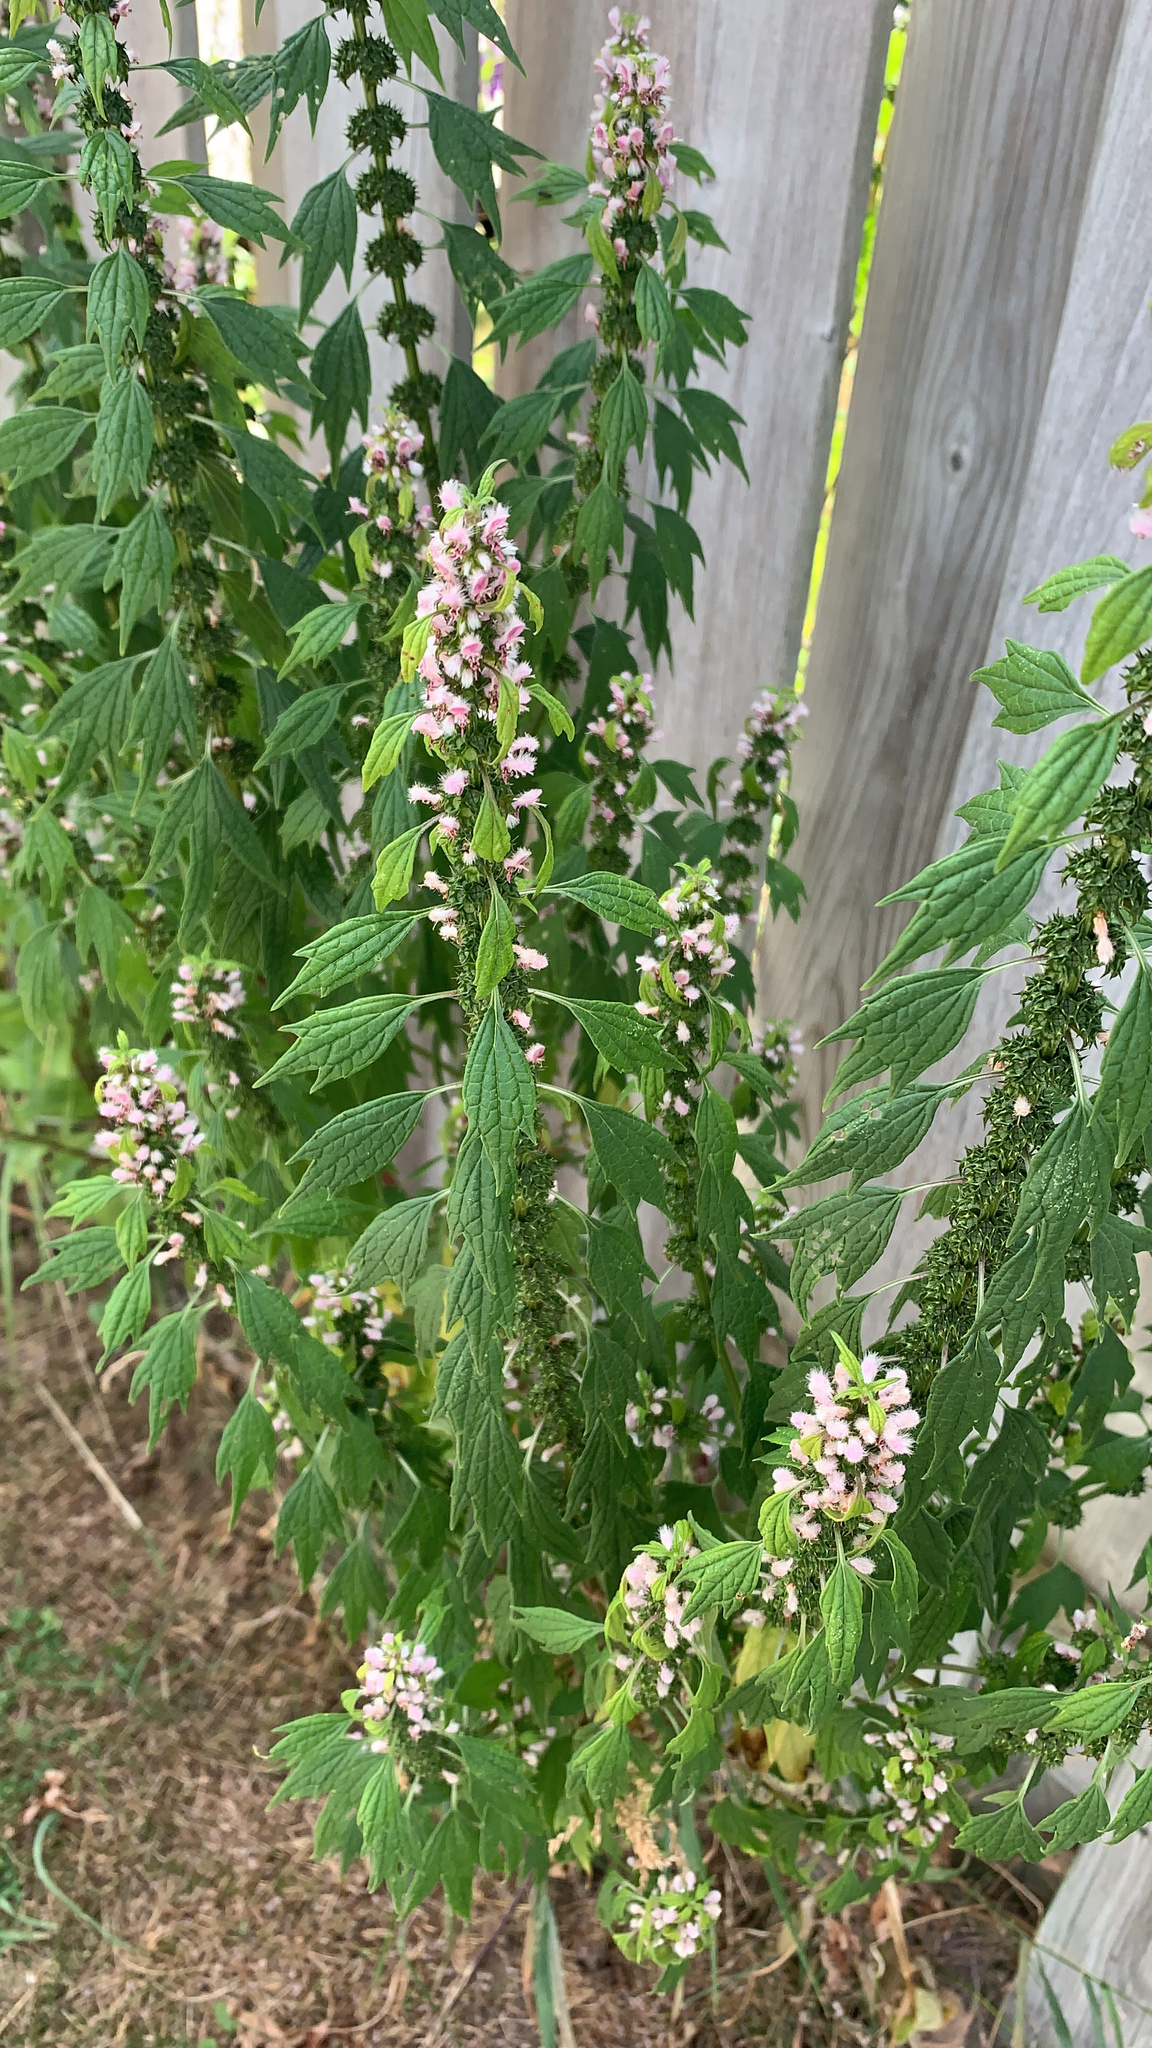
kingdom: Plantae
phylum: Tracheophyta
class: Magnoliopsida
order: Lamiales
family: Lamiaceae
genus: Leonurus
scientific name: Leonurus cardiaca
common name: Motherwort
